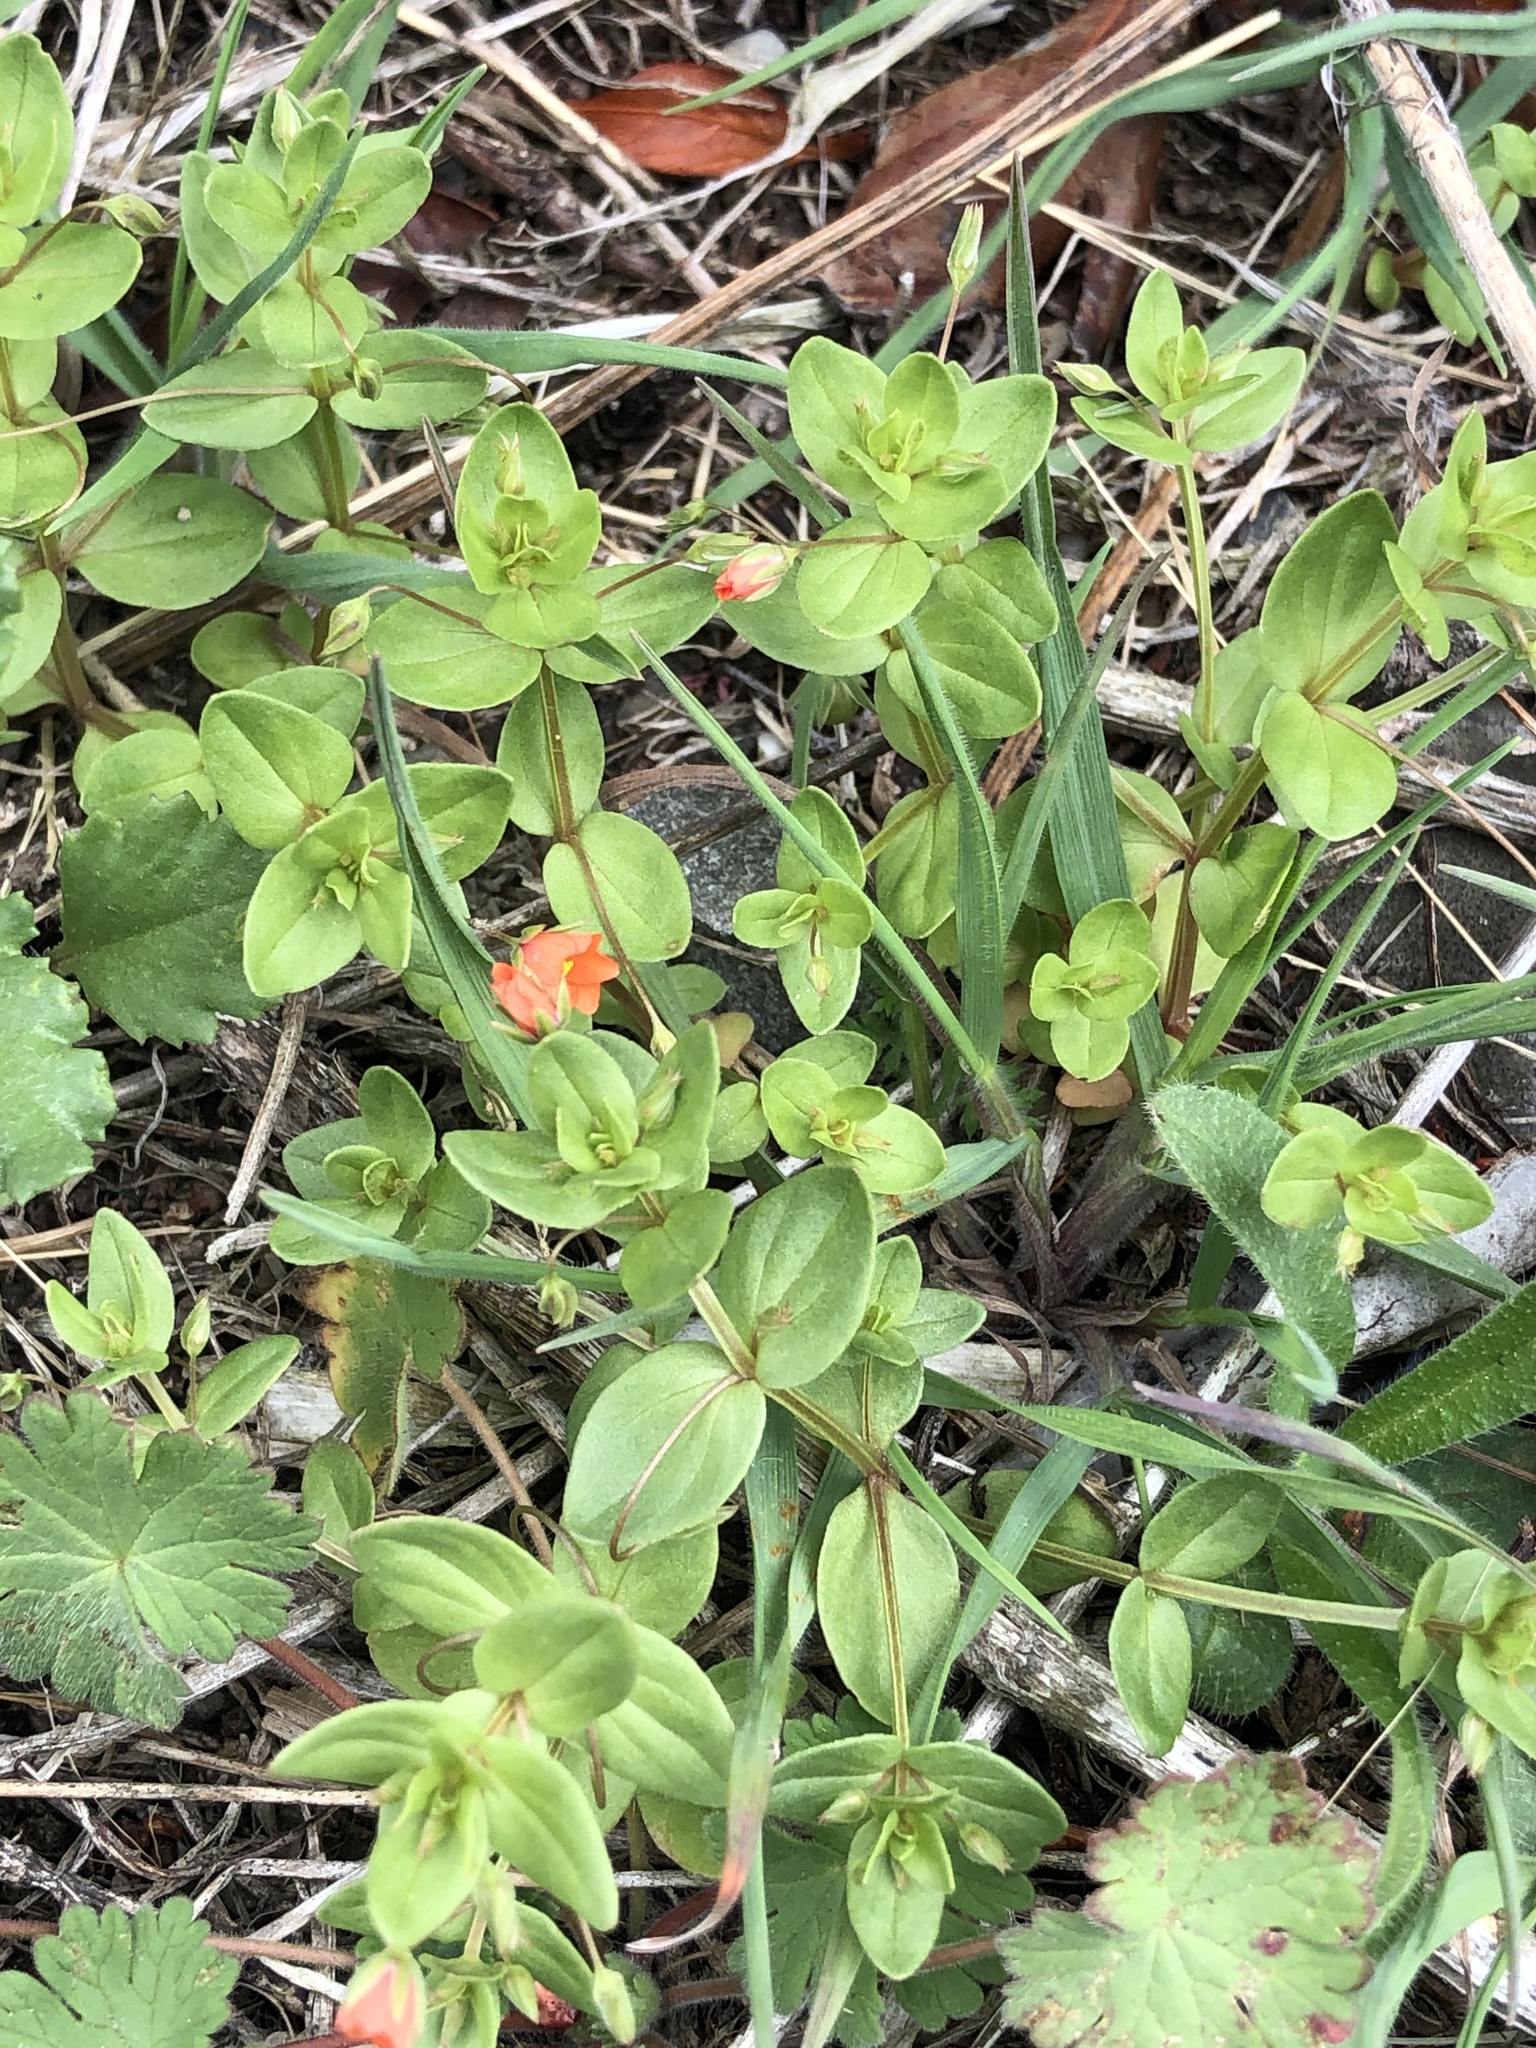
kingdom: Plantae
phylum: Tracheophyta
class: Magnoliopsida
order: Ericales
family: Primulaceae
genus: Lysimachia
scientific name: Lysimachia arvensis
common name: Scarlet pimpernel
